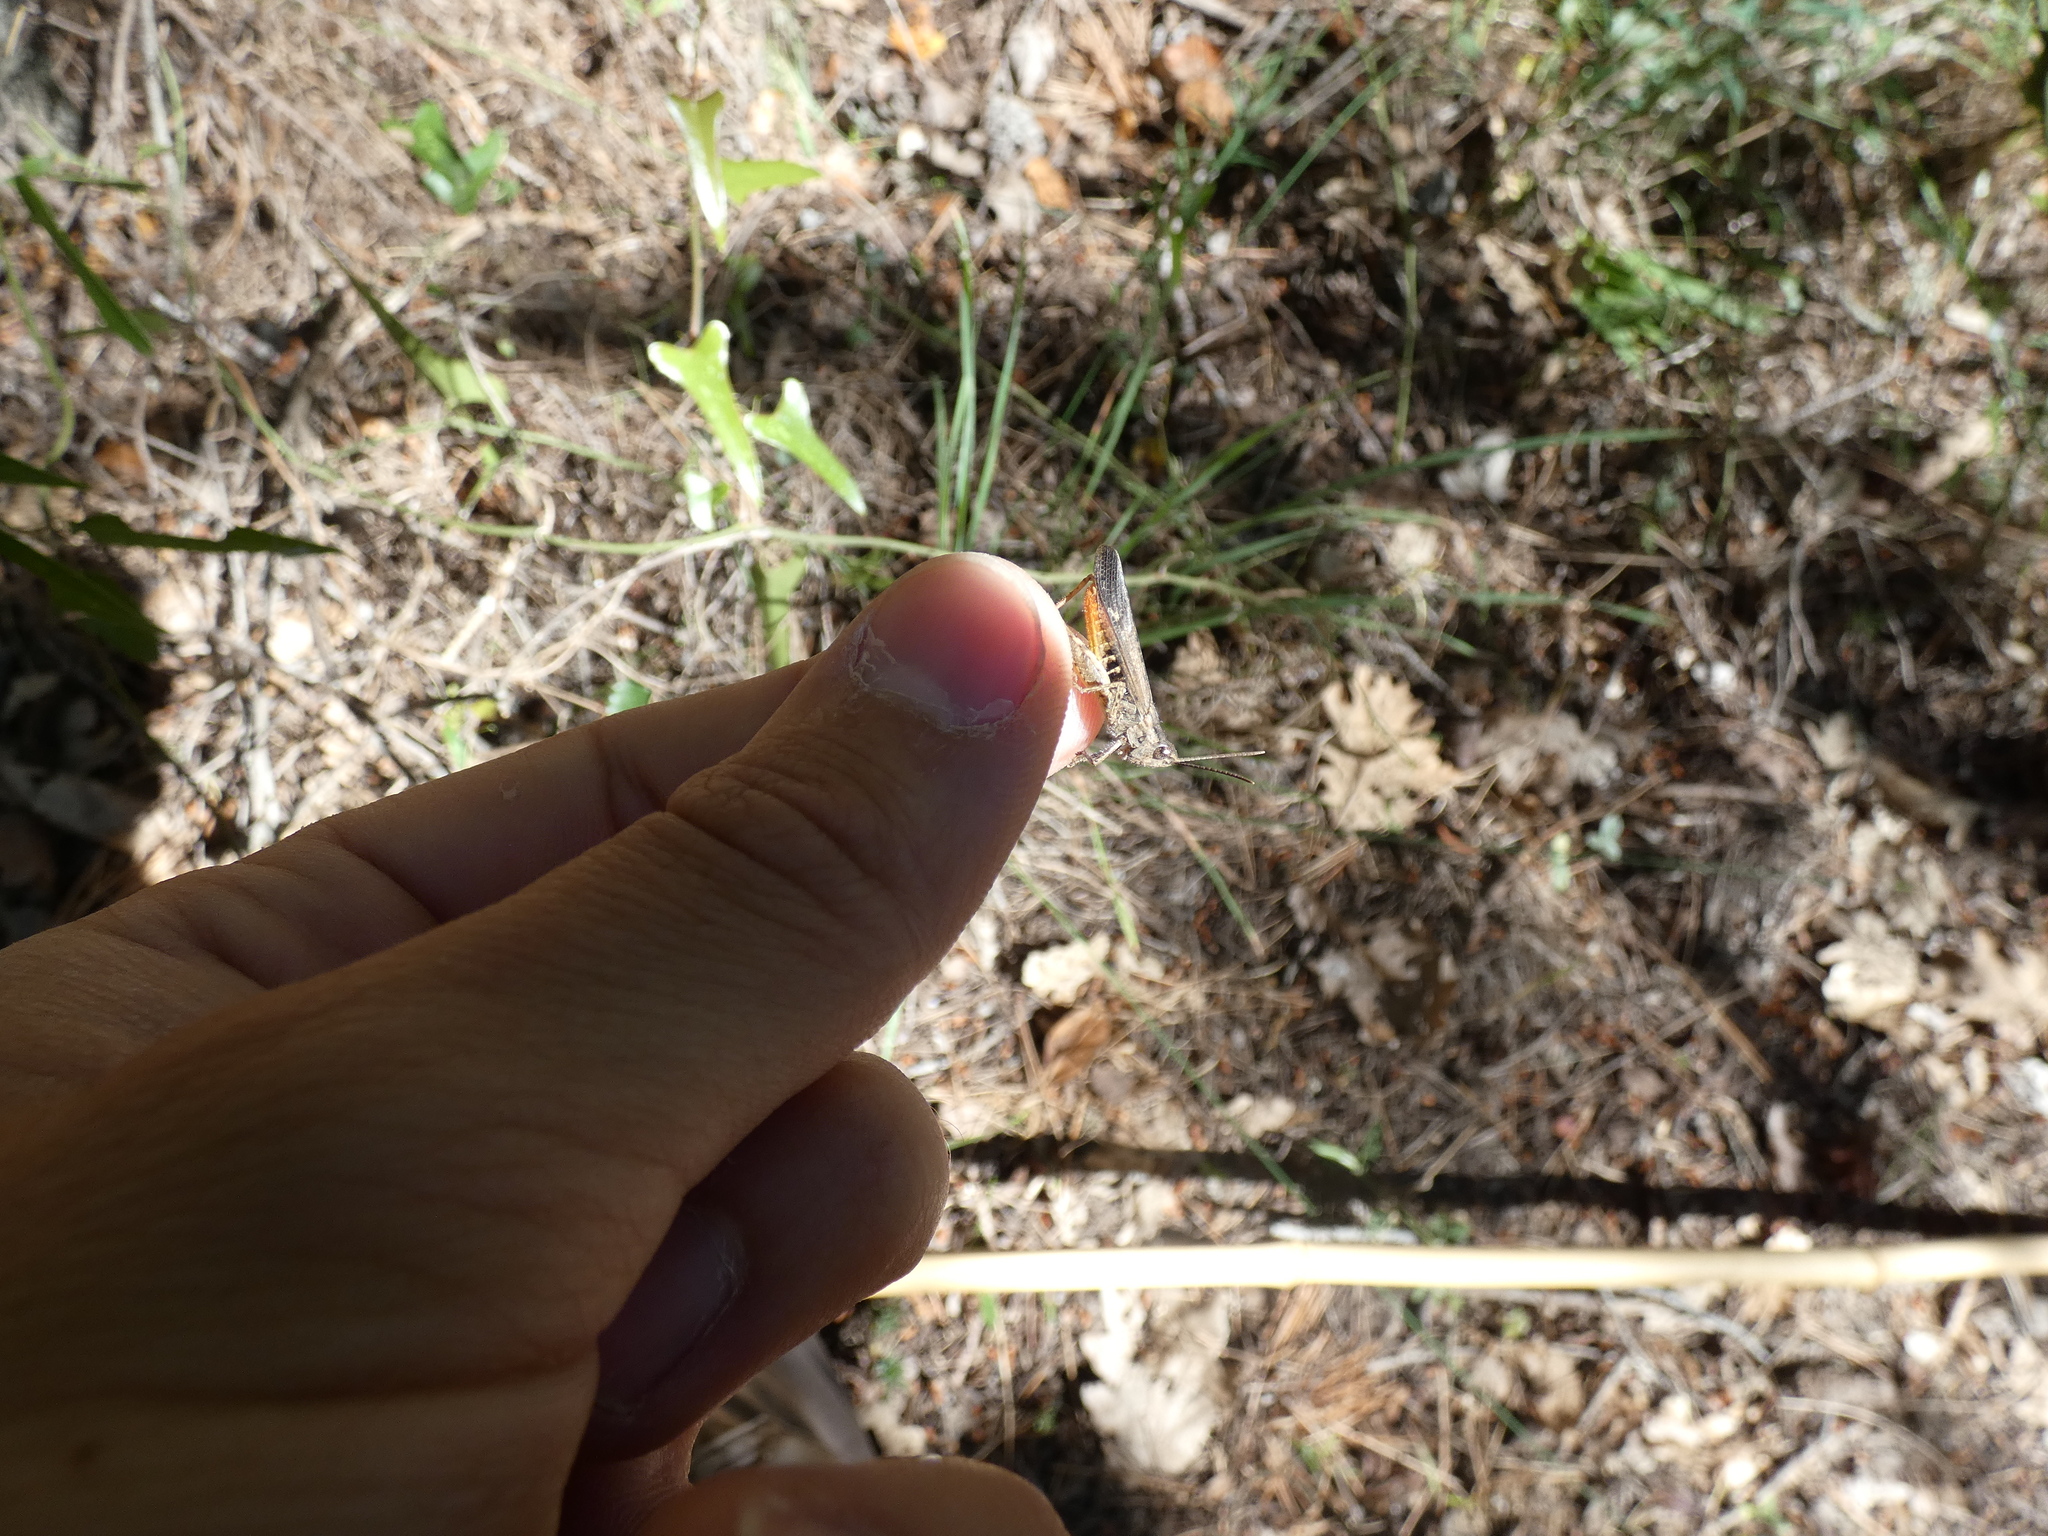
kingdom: Animalia
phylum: Arthropoda
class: Insecta
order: Orthoptera
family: Acrididae
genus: Chorthippus
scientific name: Chorthippus brunneus
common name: Field grasshopper
